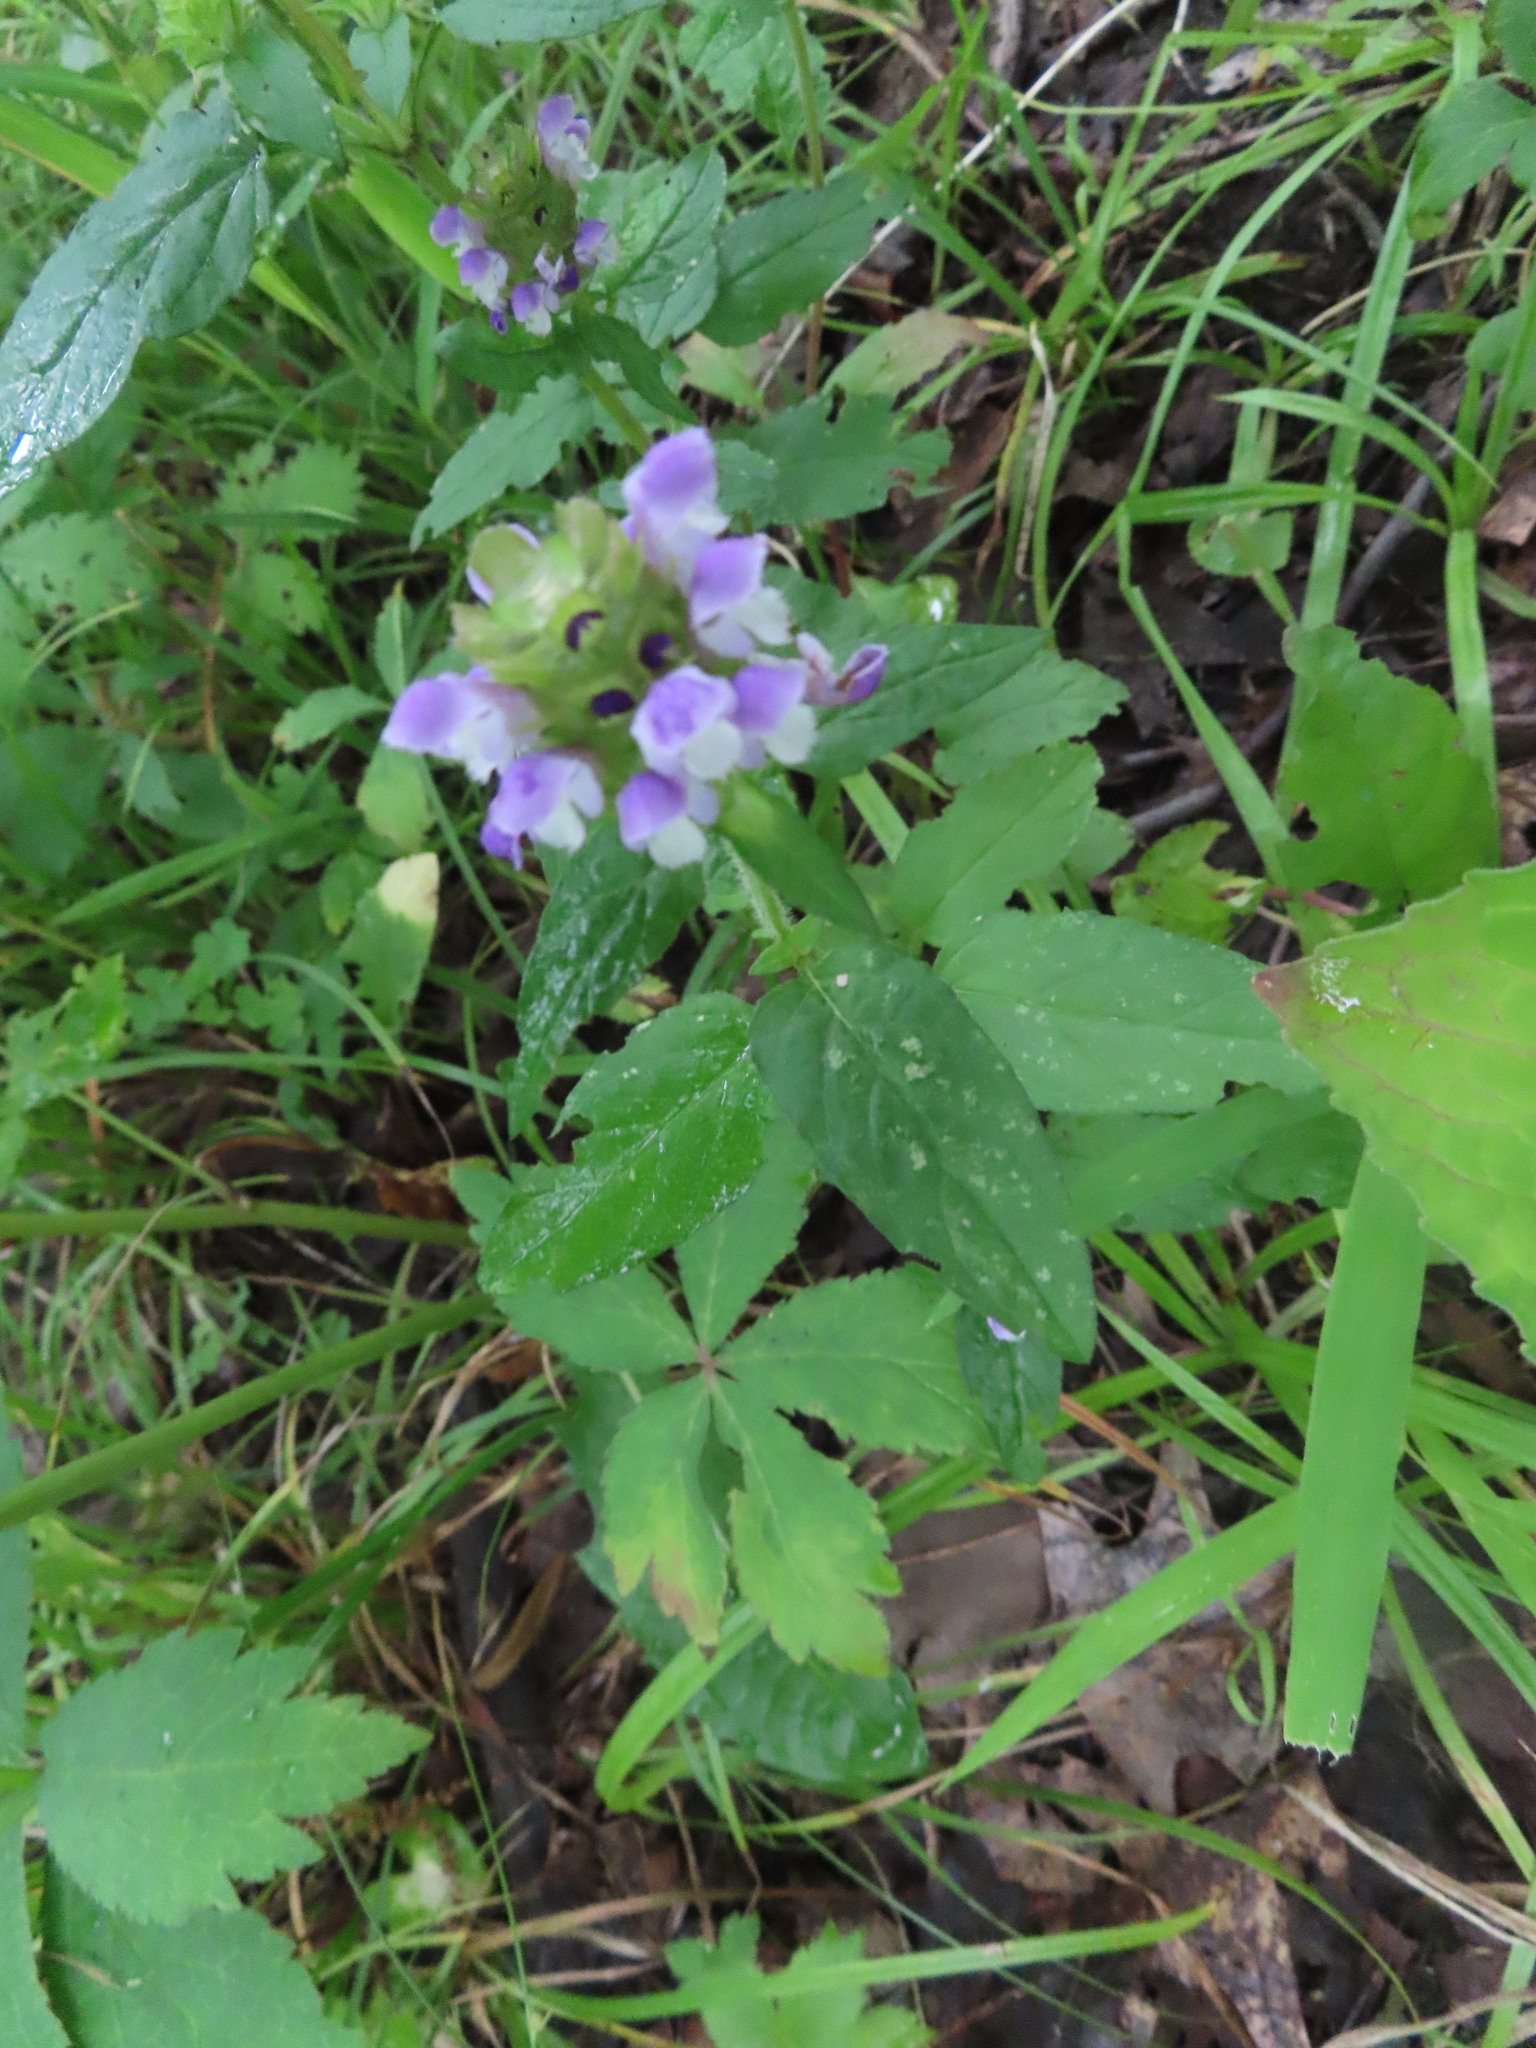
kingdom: Plantae
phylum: Tracheophyta
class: Magnoliopsida
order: Lamiales
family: Lamiaceae
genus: Prunella
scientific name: Prunella vulgaris
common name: Heal-all
